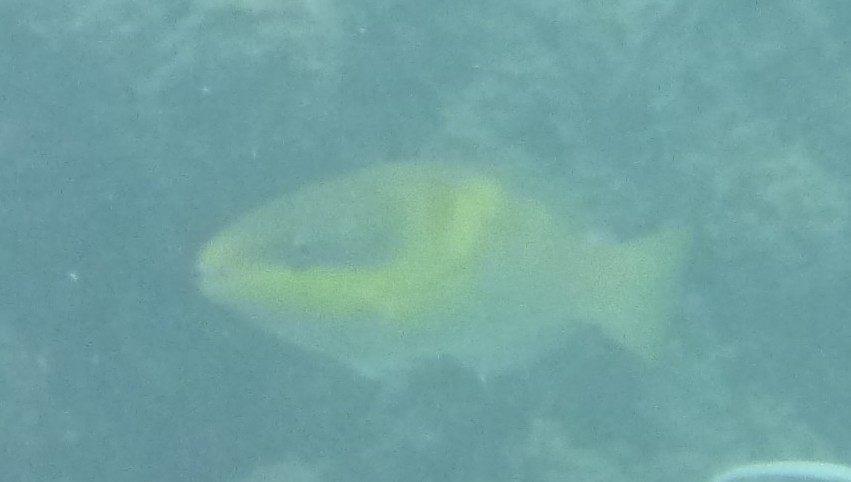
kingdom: Animalia
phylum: Chordata
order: Perciformes
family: Scaridae
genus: Scarus
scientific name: Scarus oviceps
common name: Blue parrotfish
